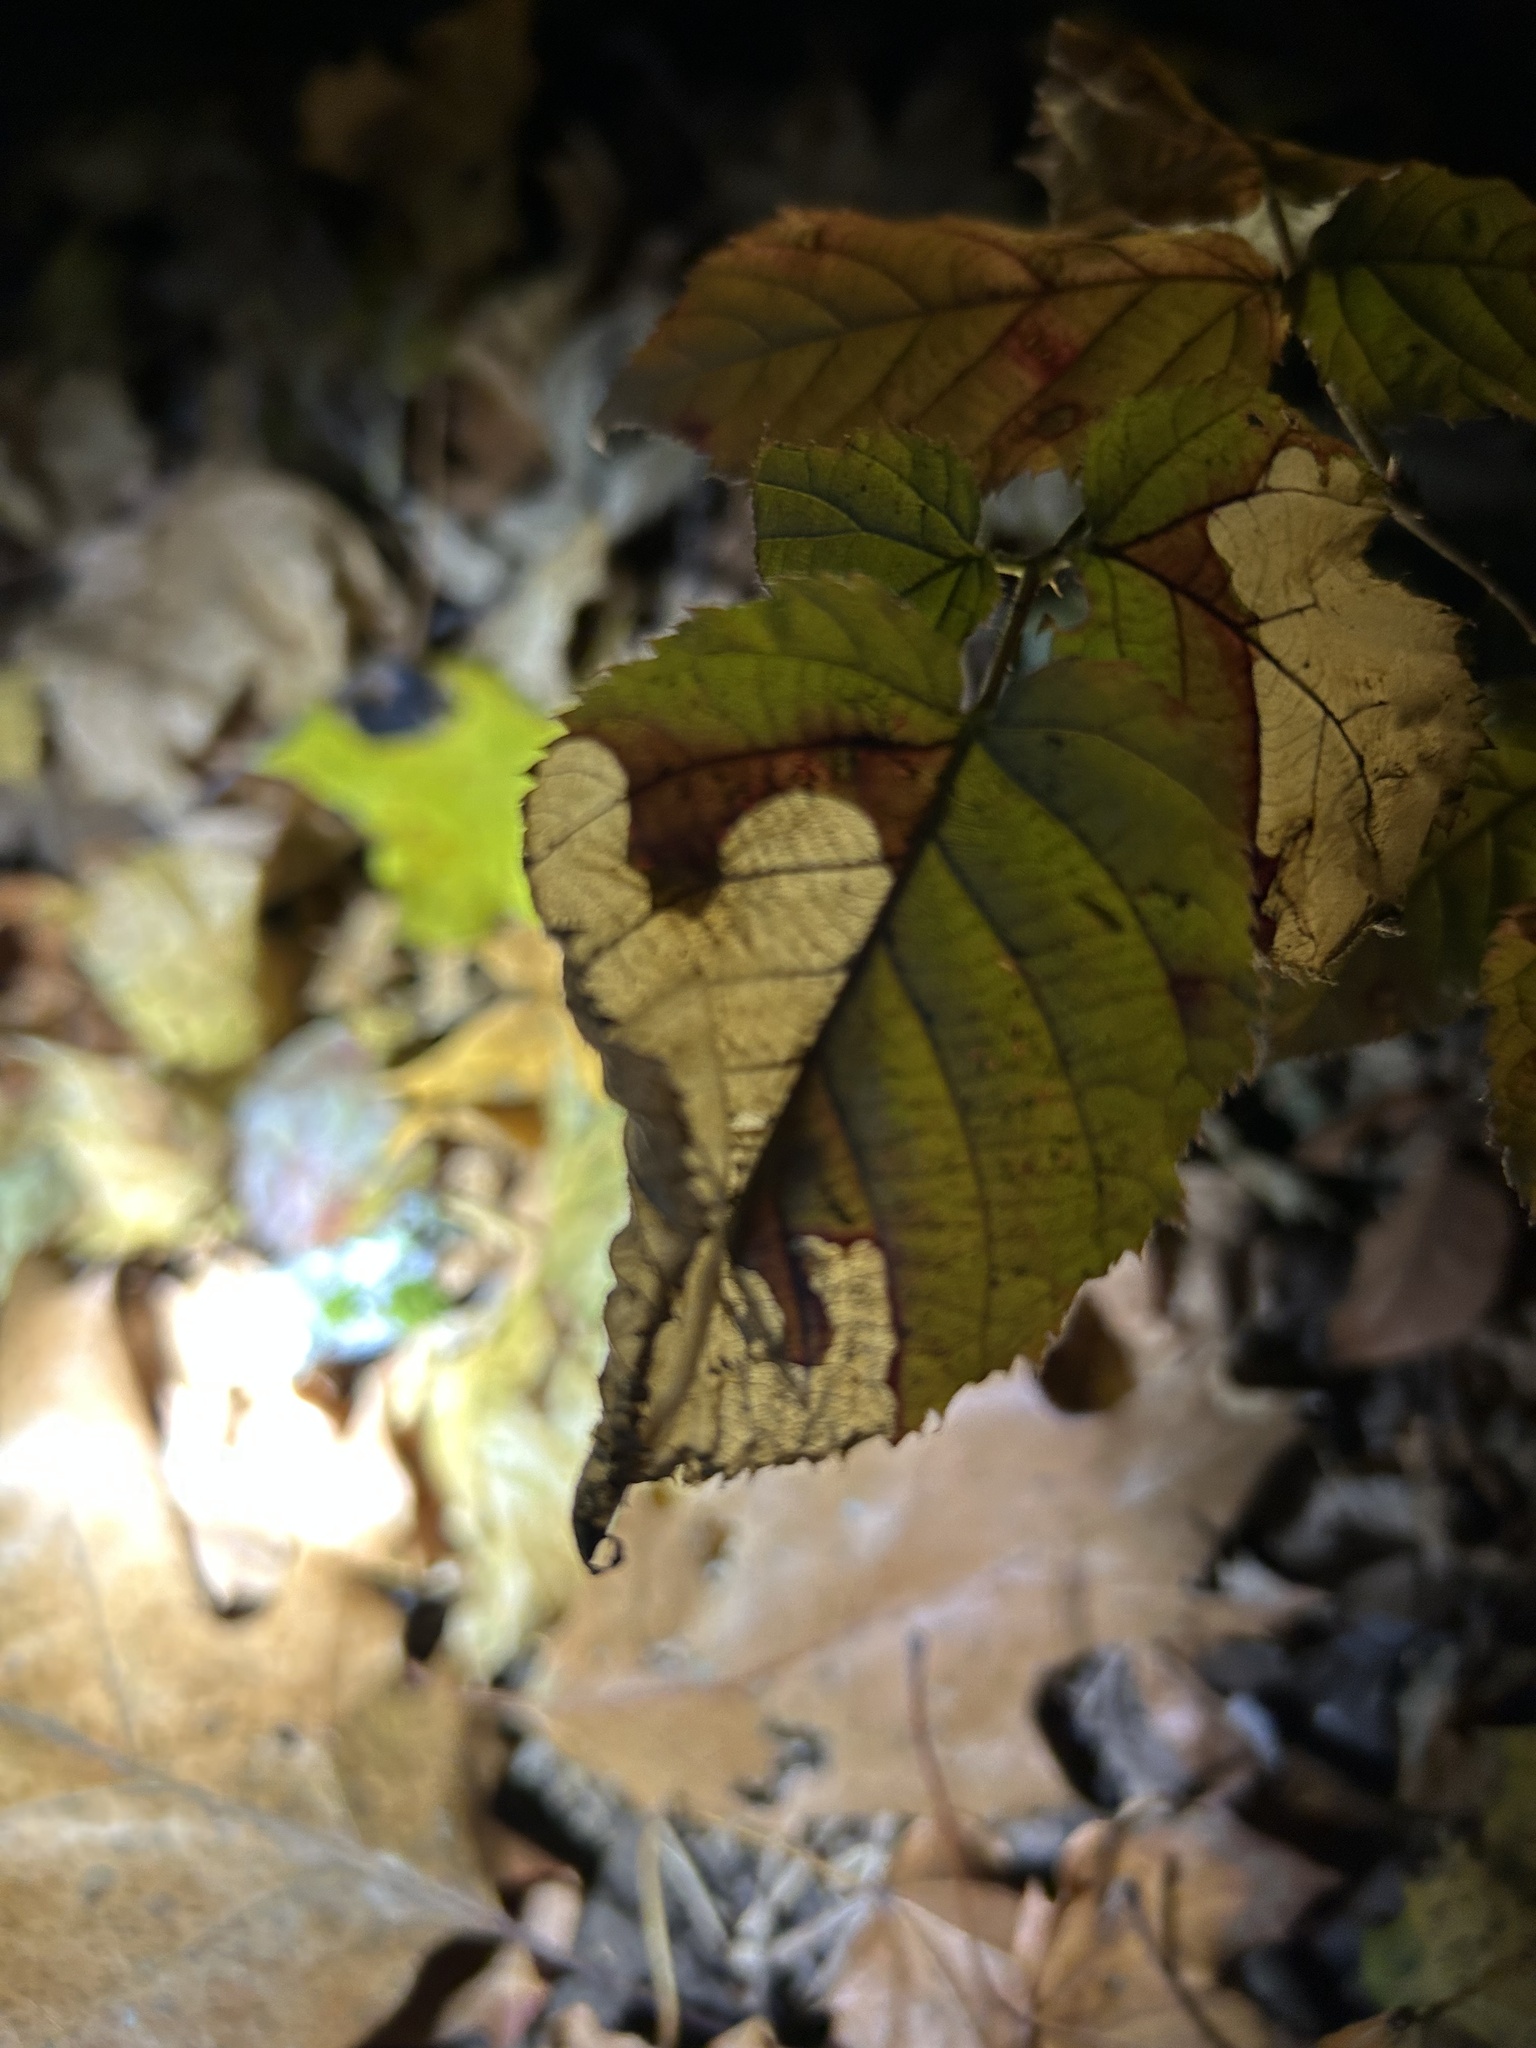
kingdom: Animalia
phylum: Arthropoda
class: Insecta
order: Hymenoptera
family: Tenthredinidae
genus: Metallus
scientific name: Metallus rohweri
